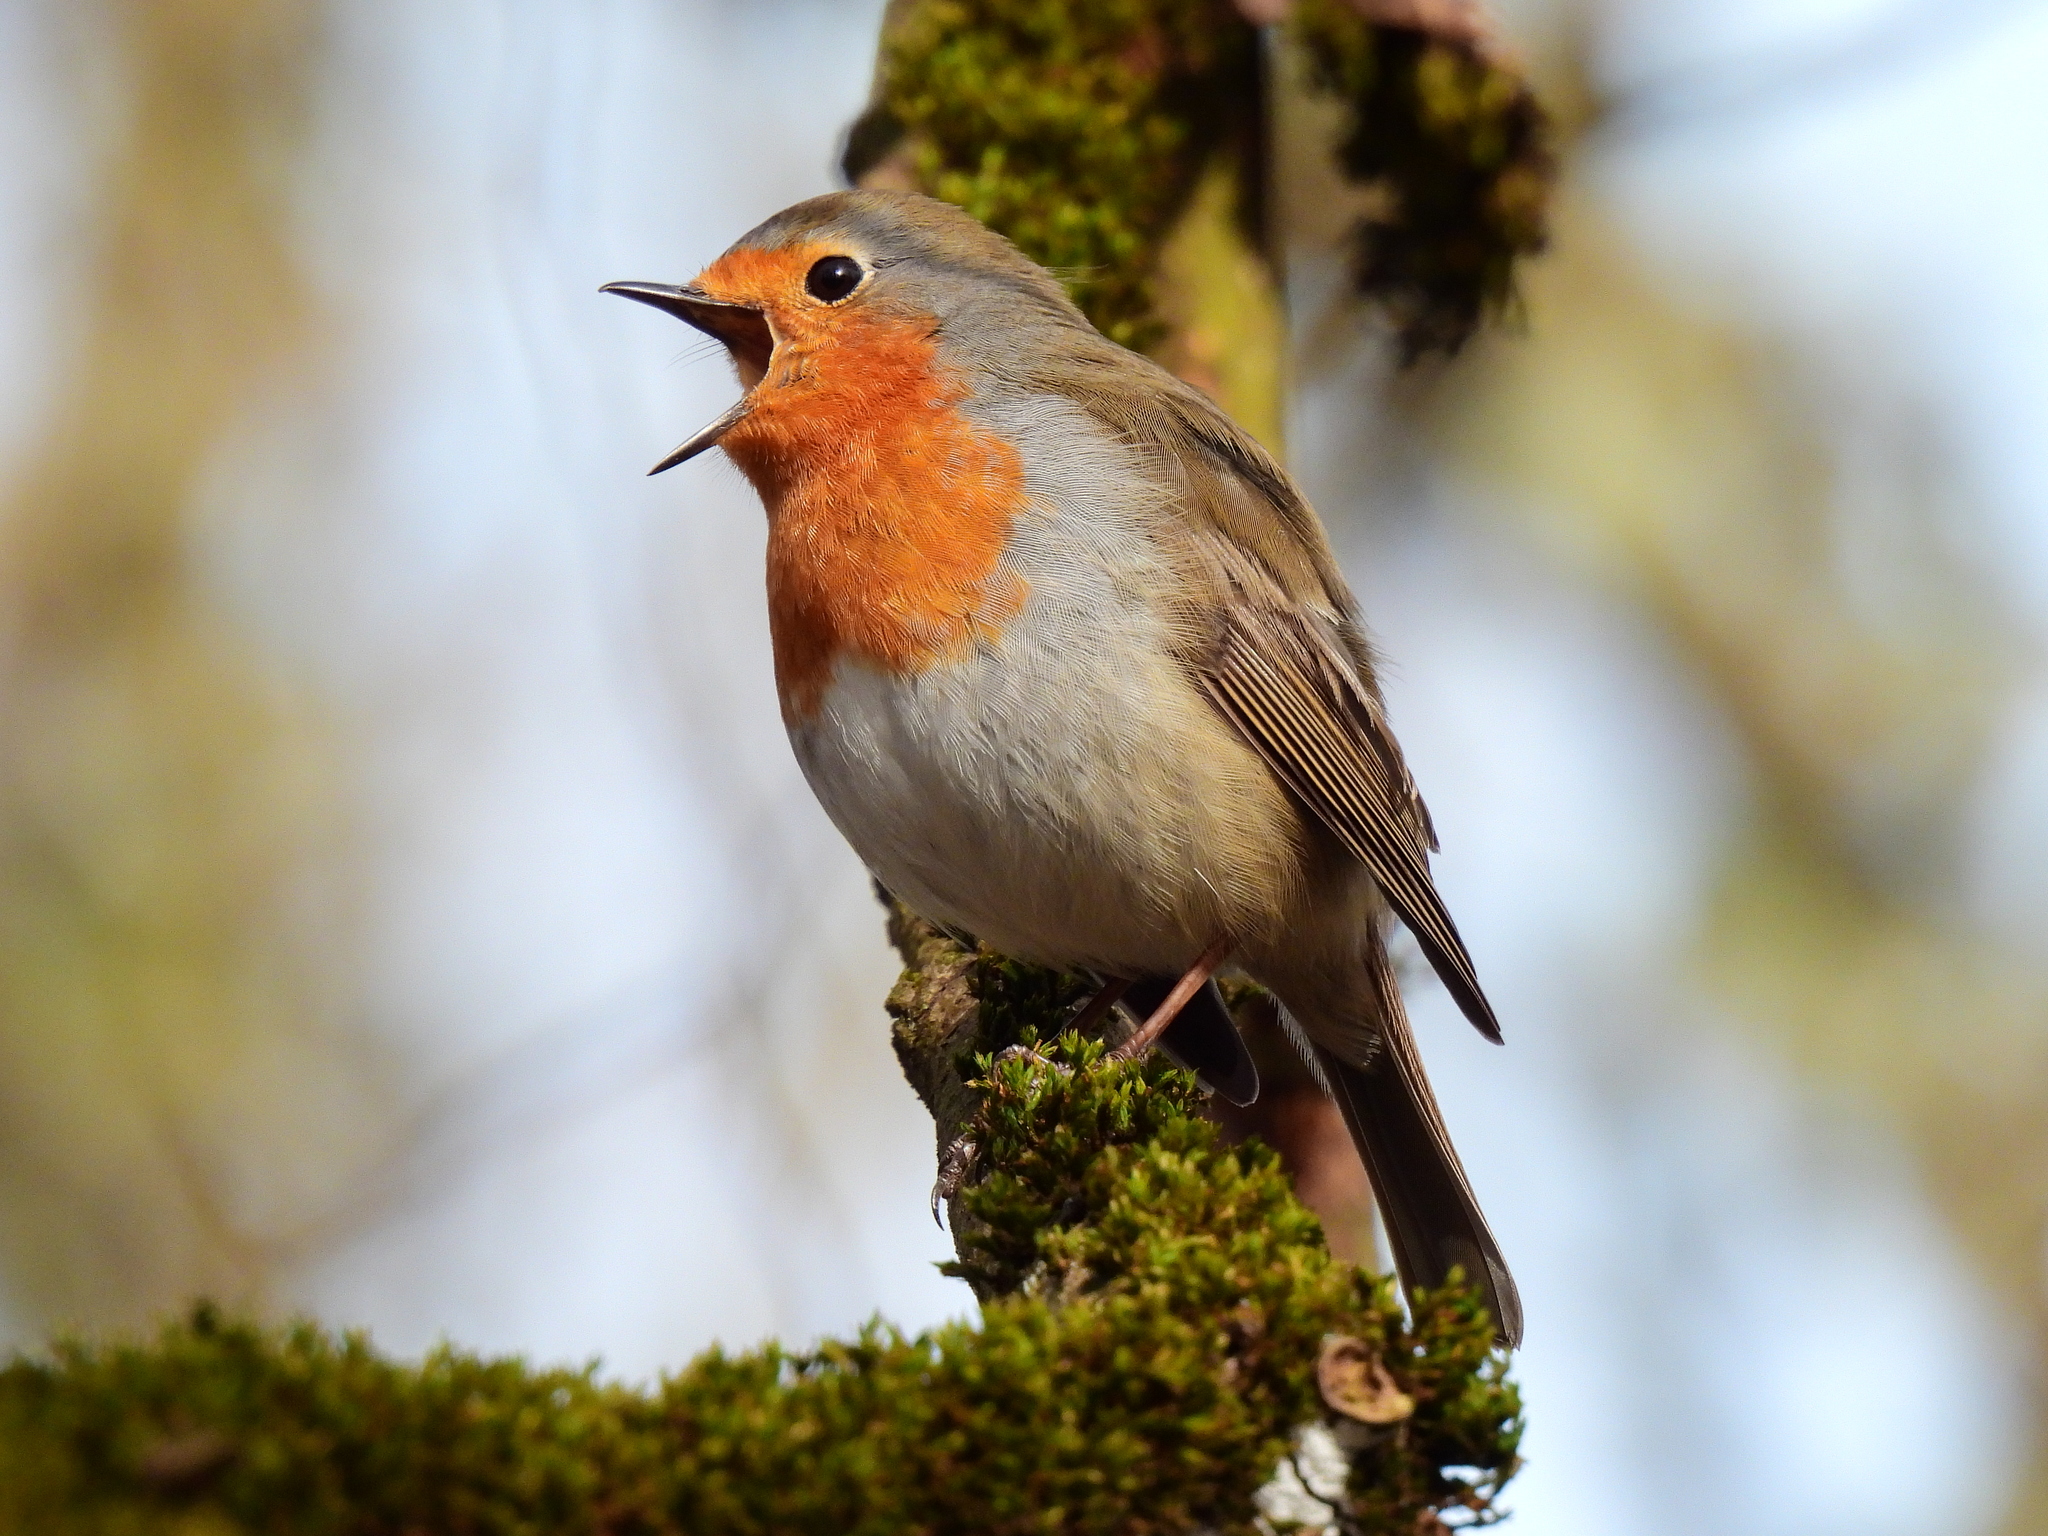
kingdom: Animalia
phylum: Chordata
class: Aves
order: Passeriformes
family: Muscicapidae
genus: Erithacus
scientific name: Erithacus rubecula
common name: European robin
